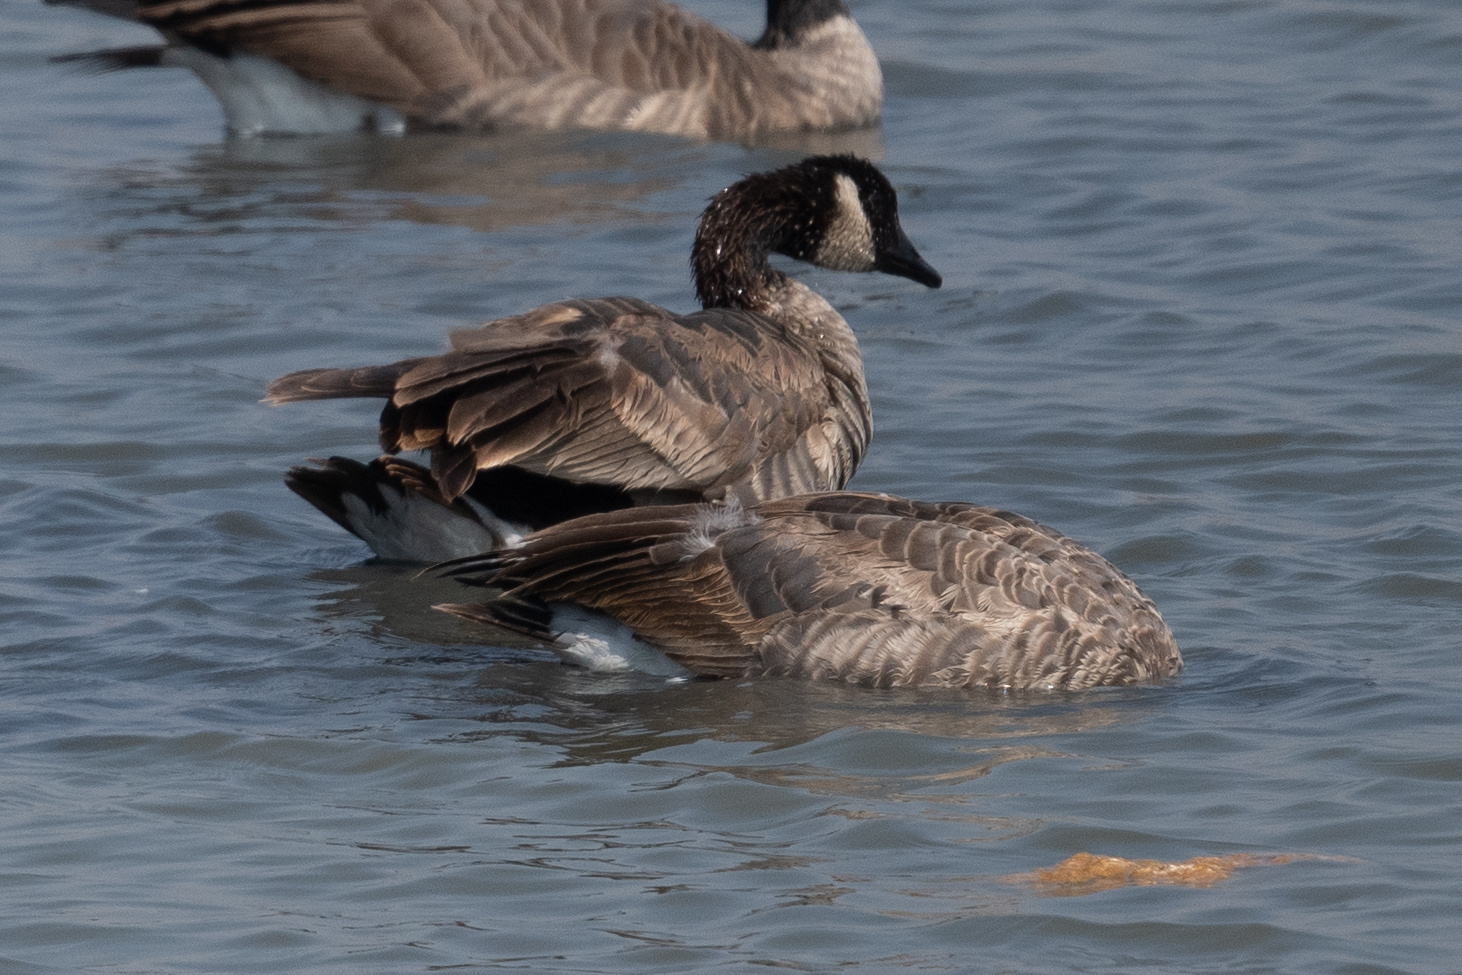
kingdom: Animalia
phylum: Chordata
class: Aves
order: Anseriformes
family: Anatidae
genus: Branta
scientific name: Branta canadensis
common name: Canada goose
